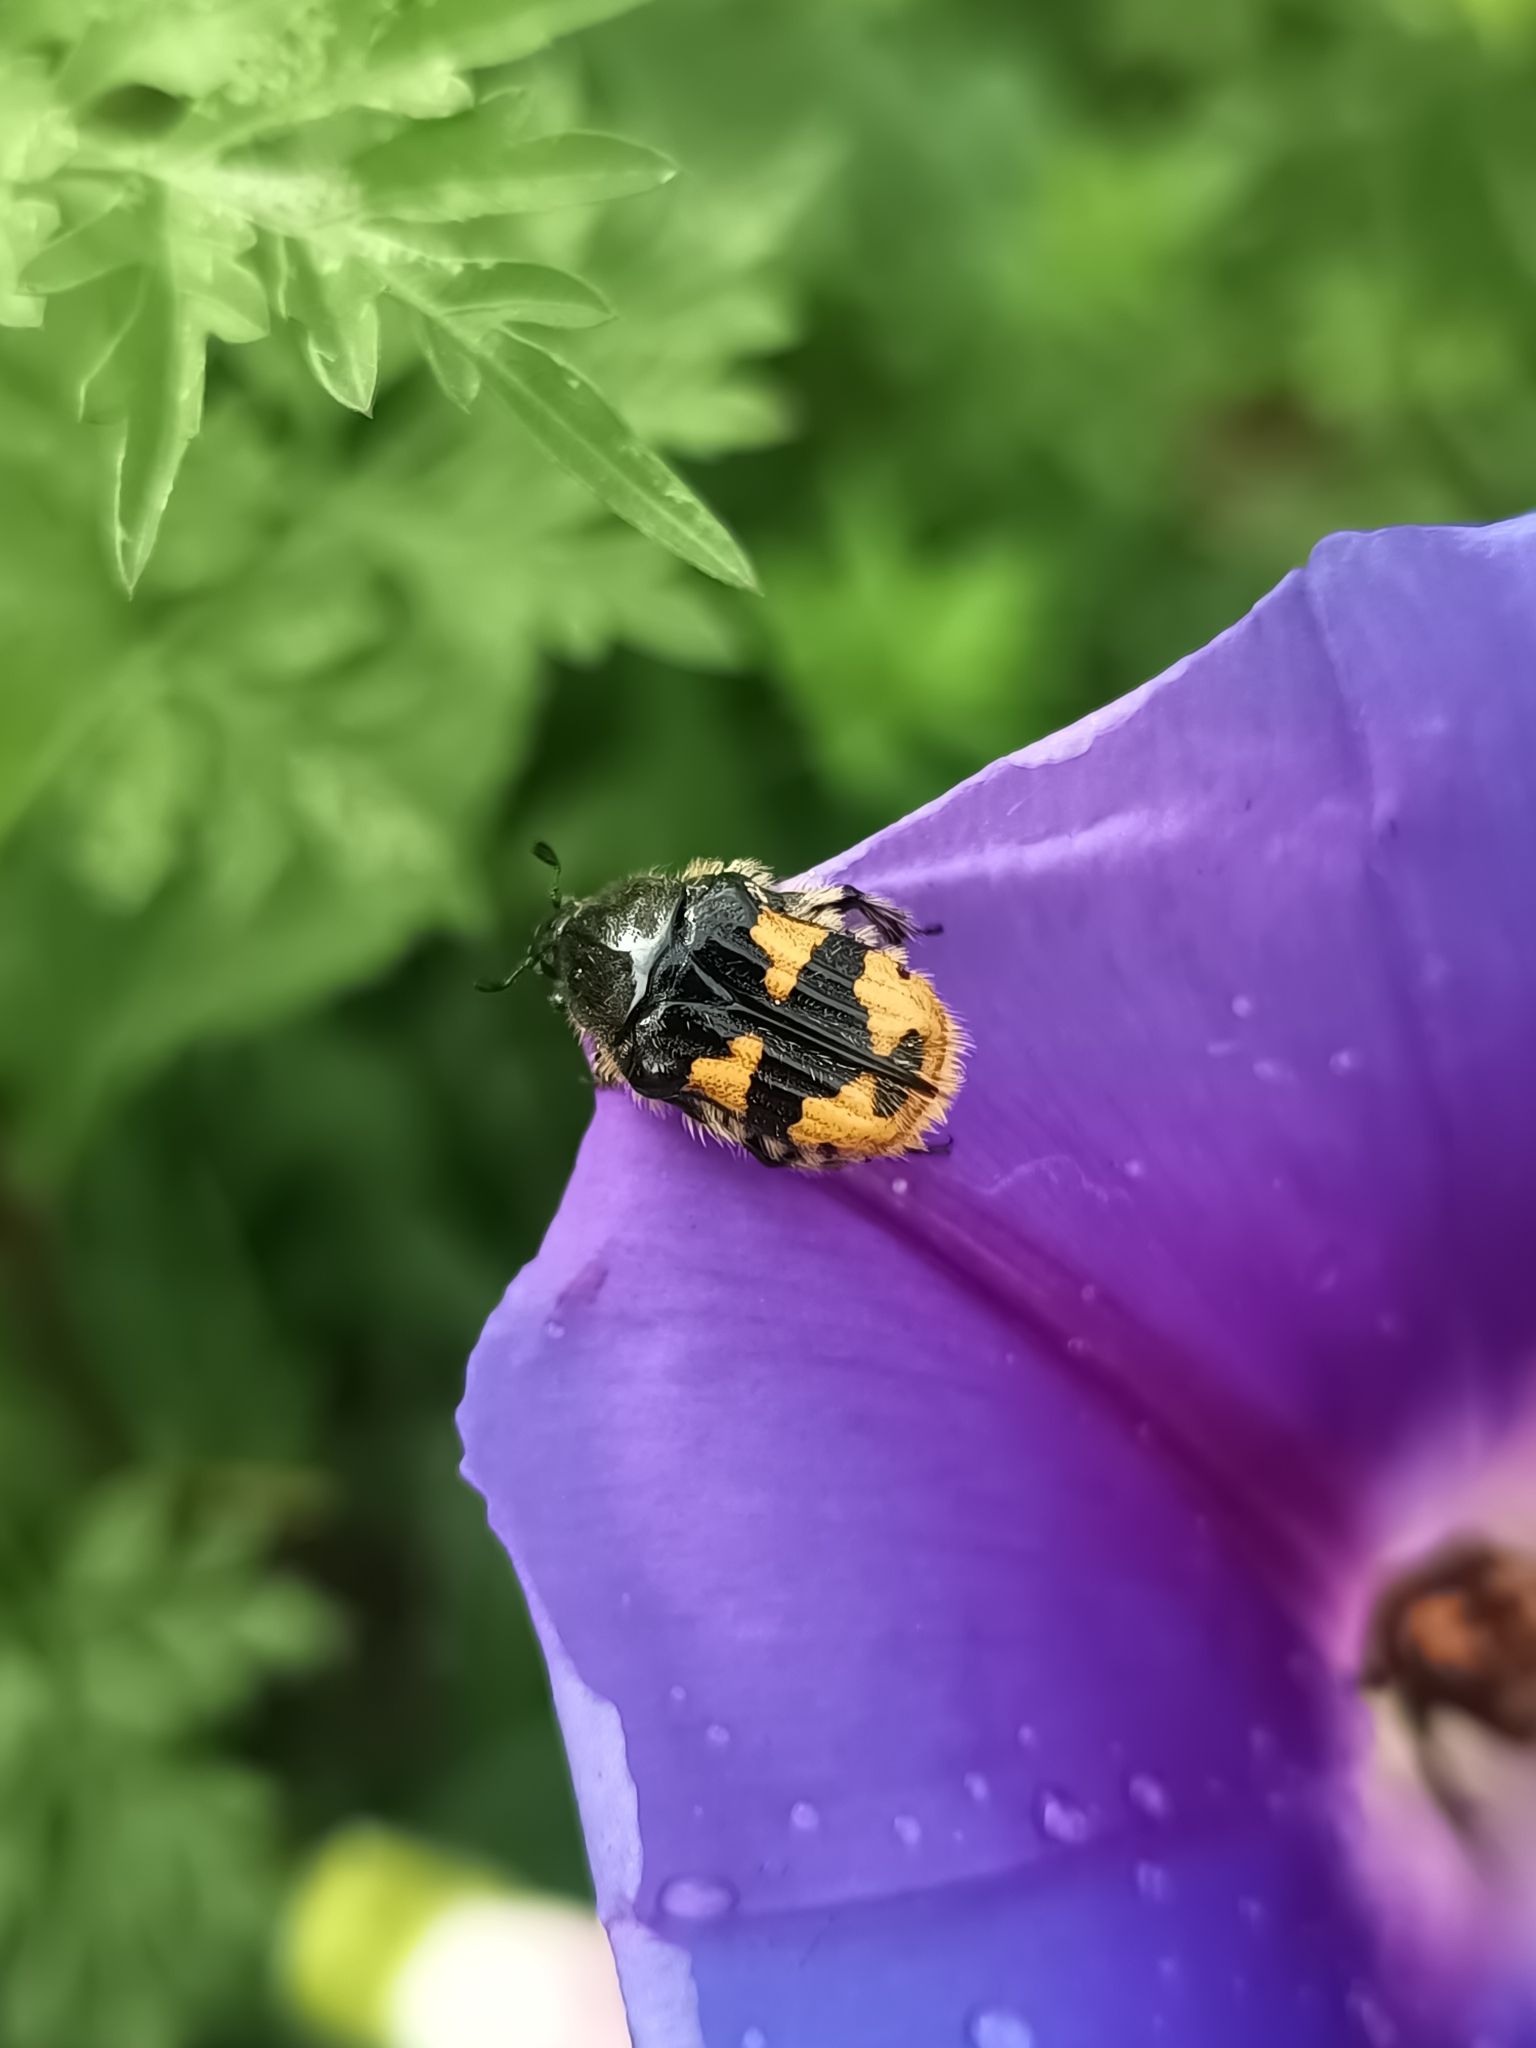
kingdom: Animalia
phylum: Arthropoda
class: Insecta
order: Coleoptera
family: Scarabaeidae
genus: Euphoria
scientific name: Euphoria basalis
